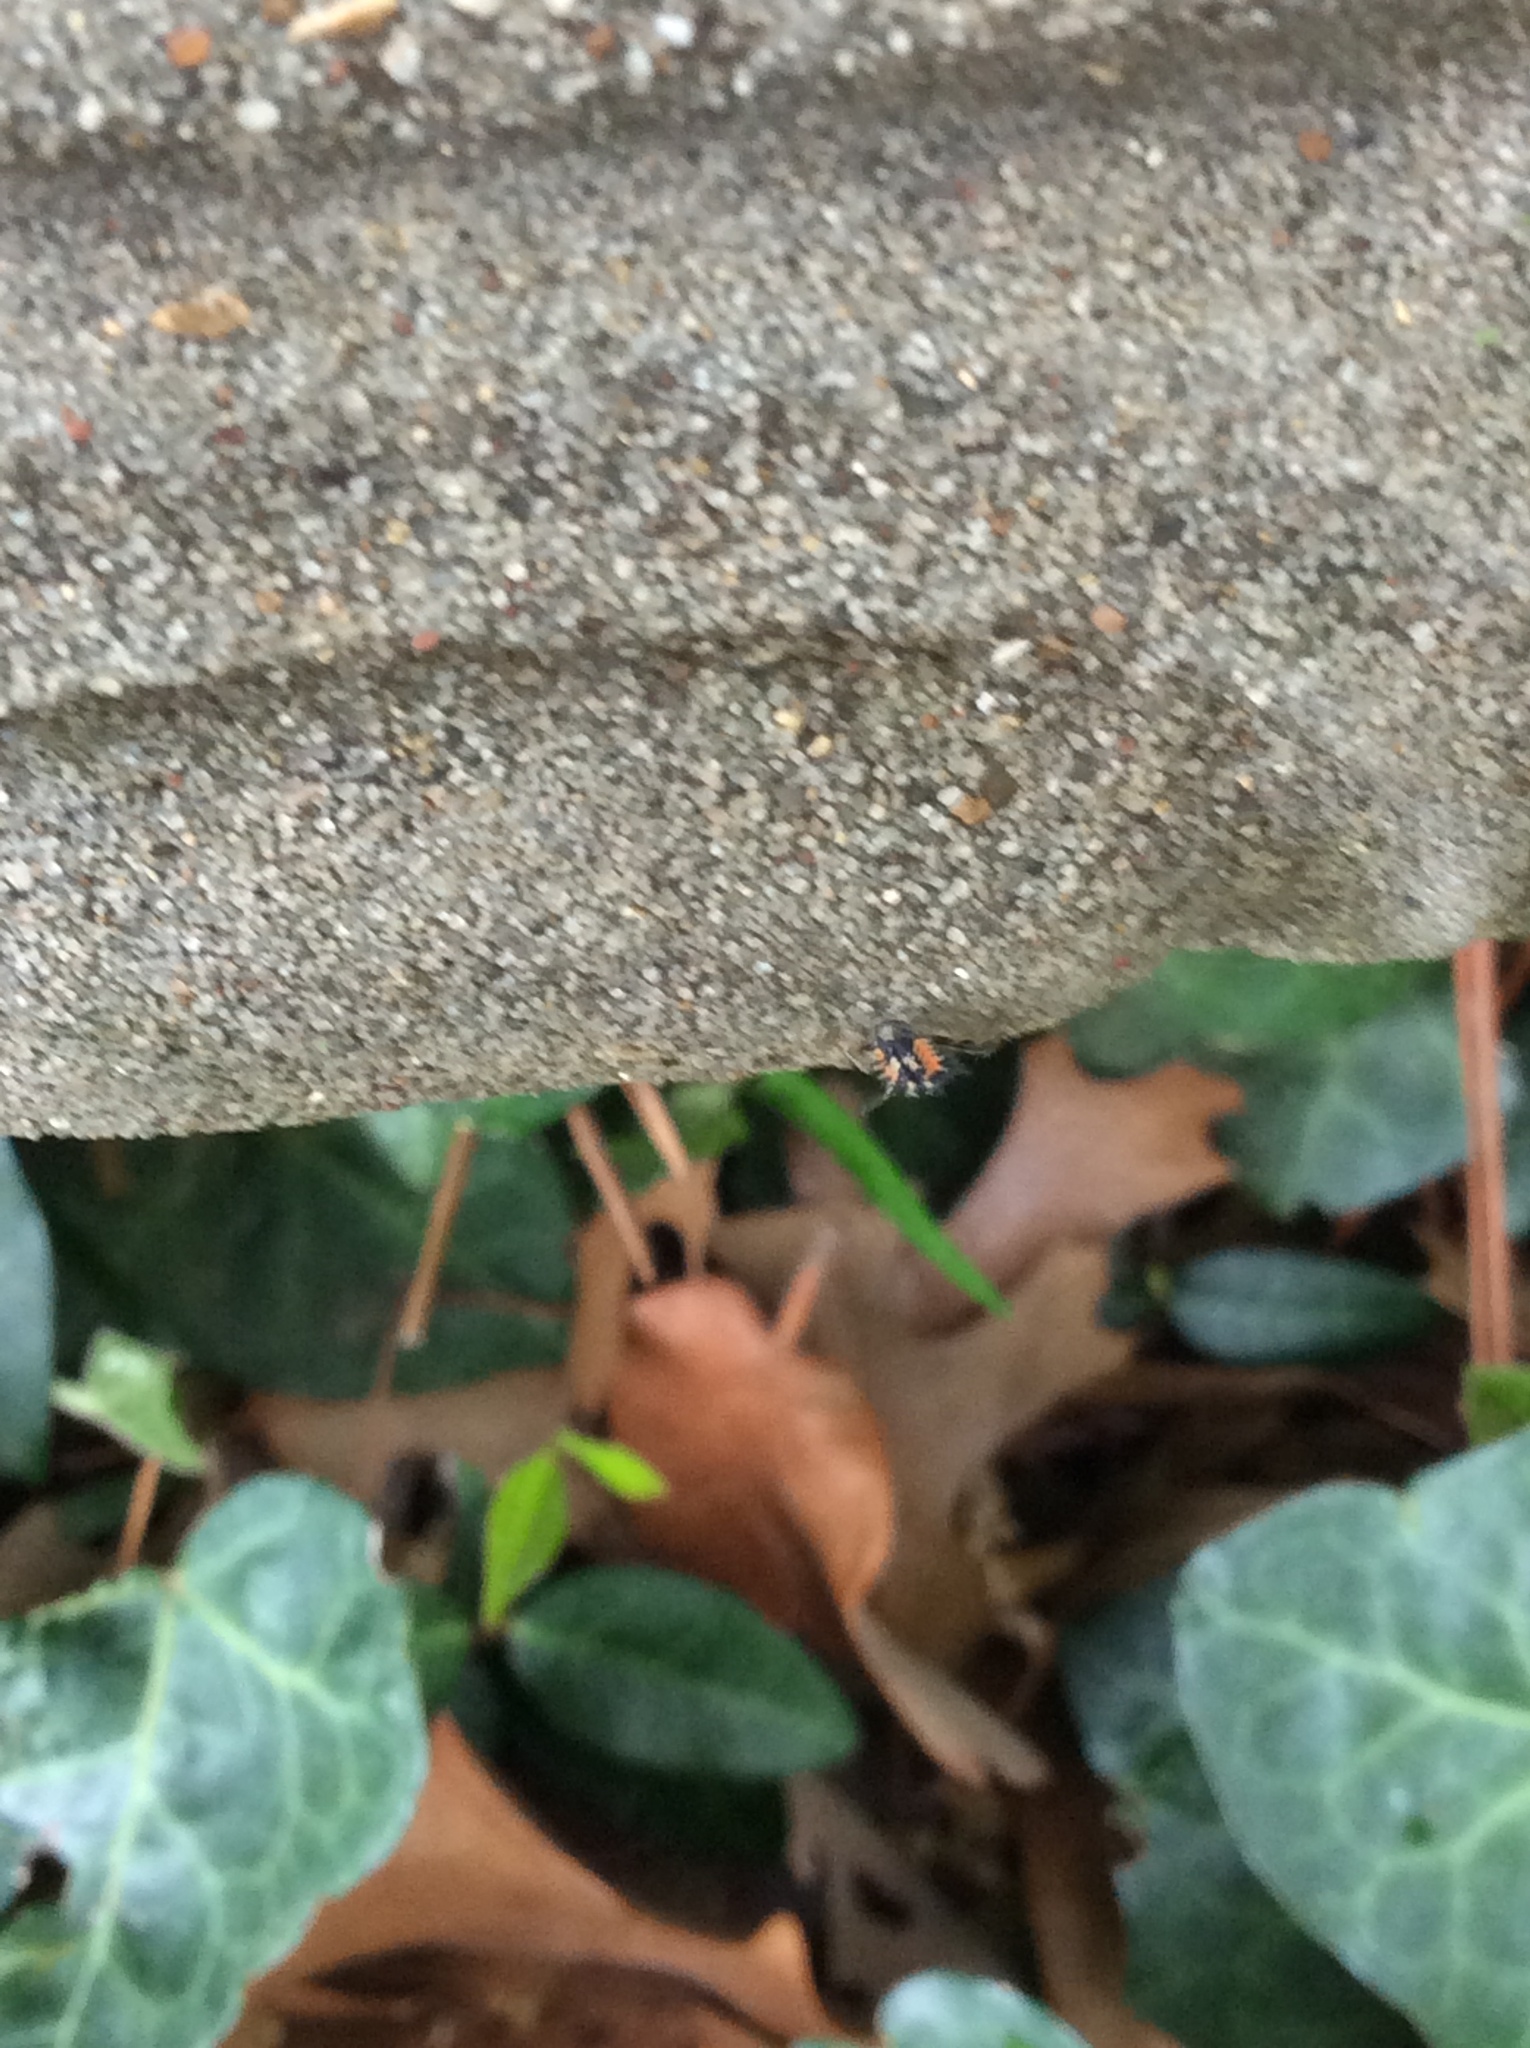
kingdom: Animalia
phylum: Arthropoda
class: Insecta
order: Coleoptera
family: Coccinellidae
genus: Harmonia
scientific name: Harmonia axyridis
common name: Harlequin ladybird
